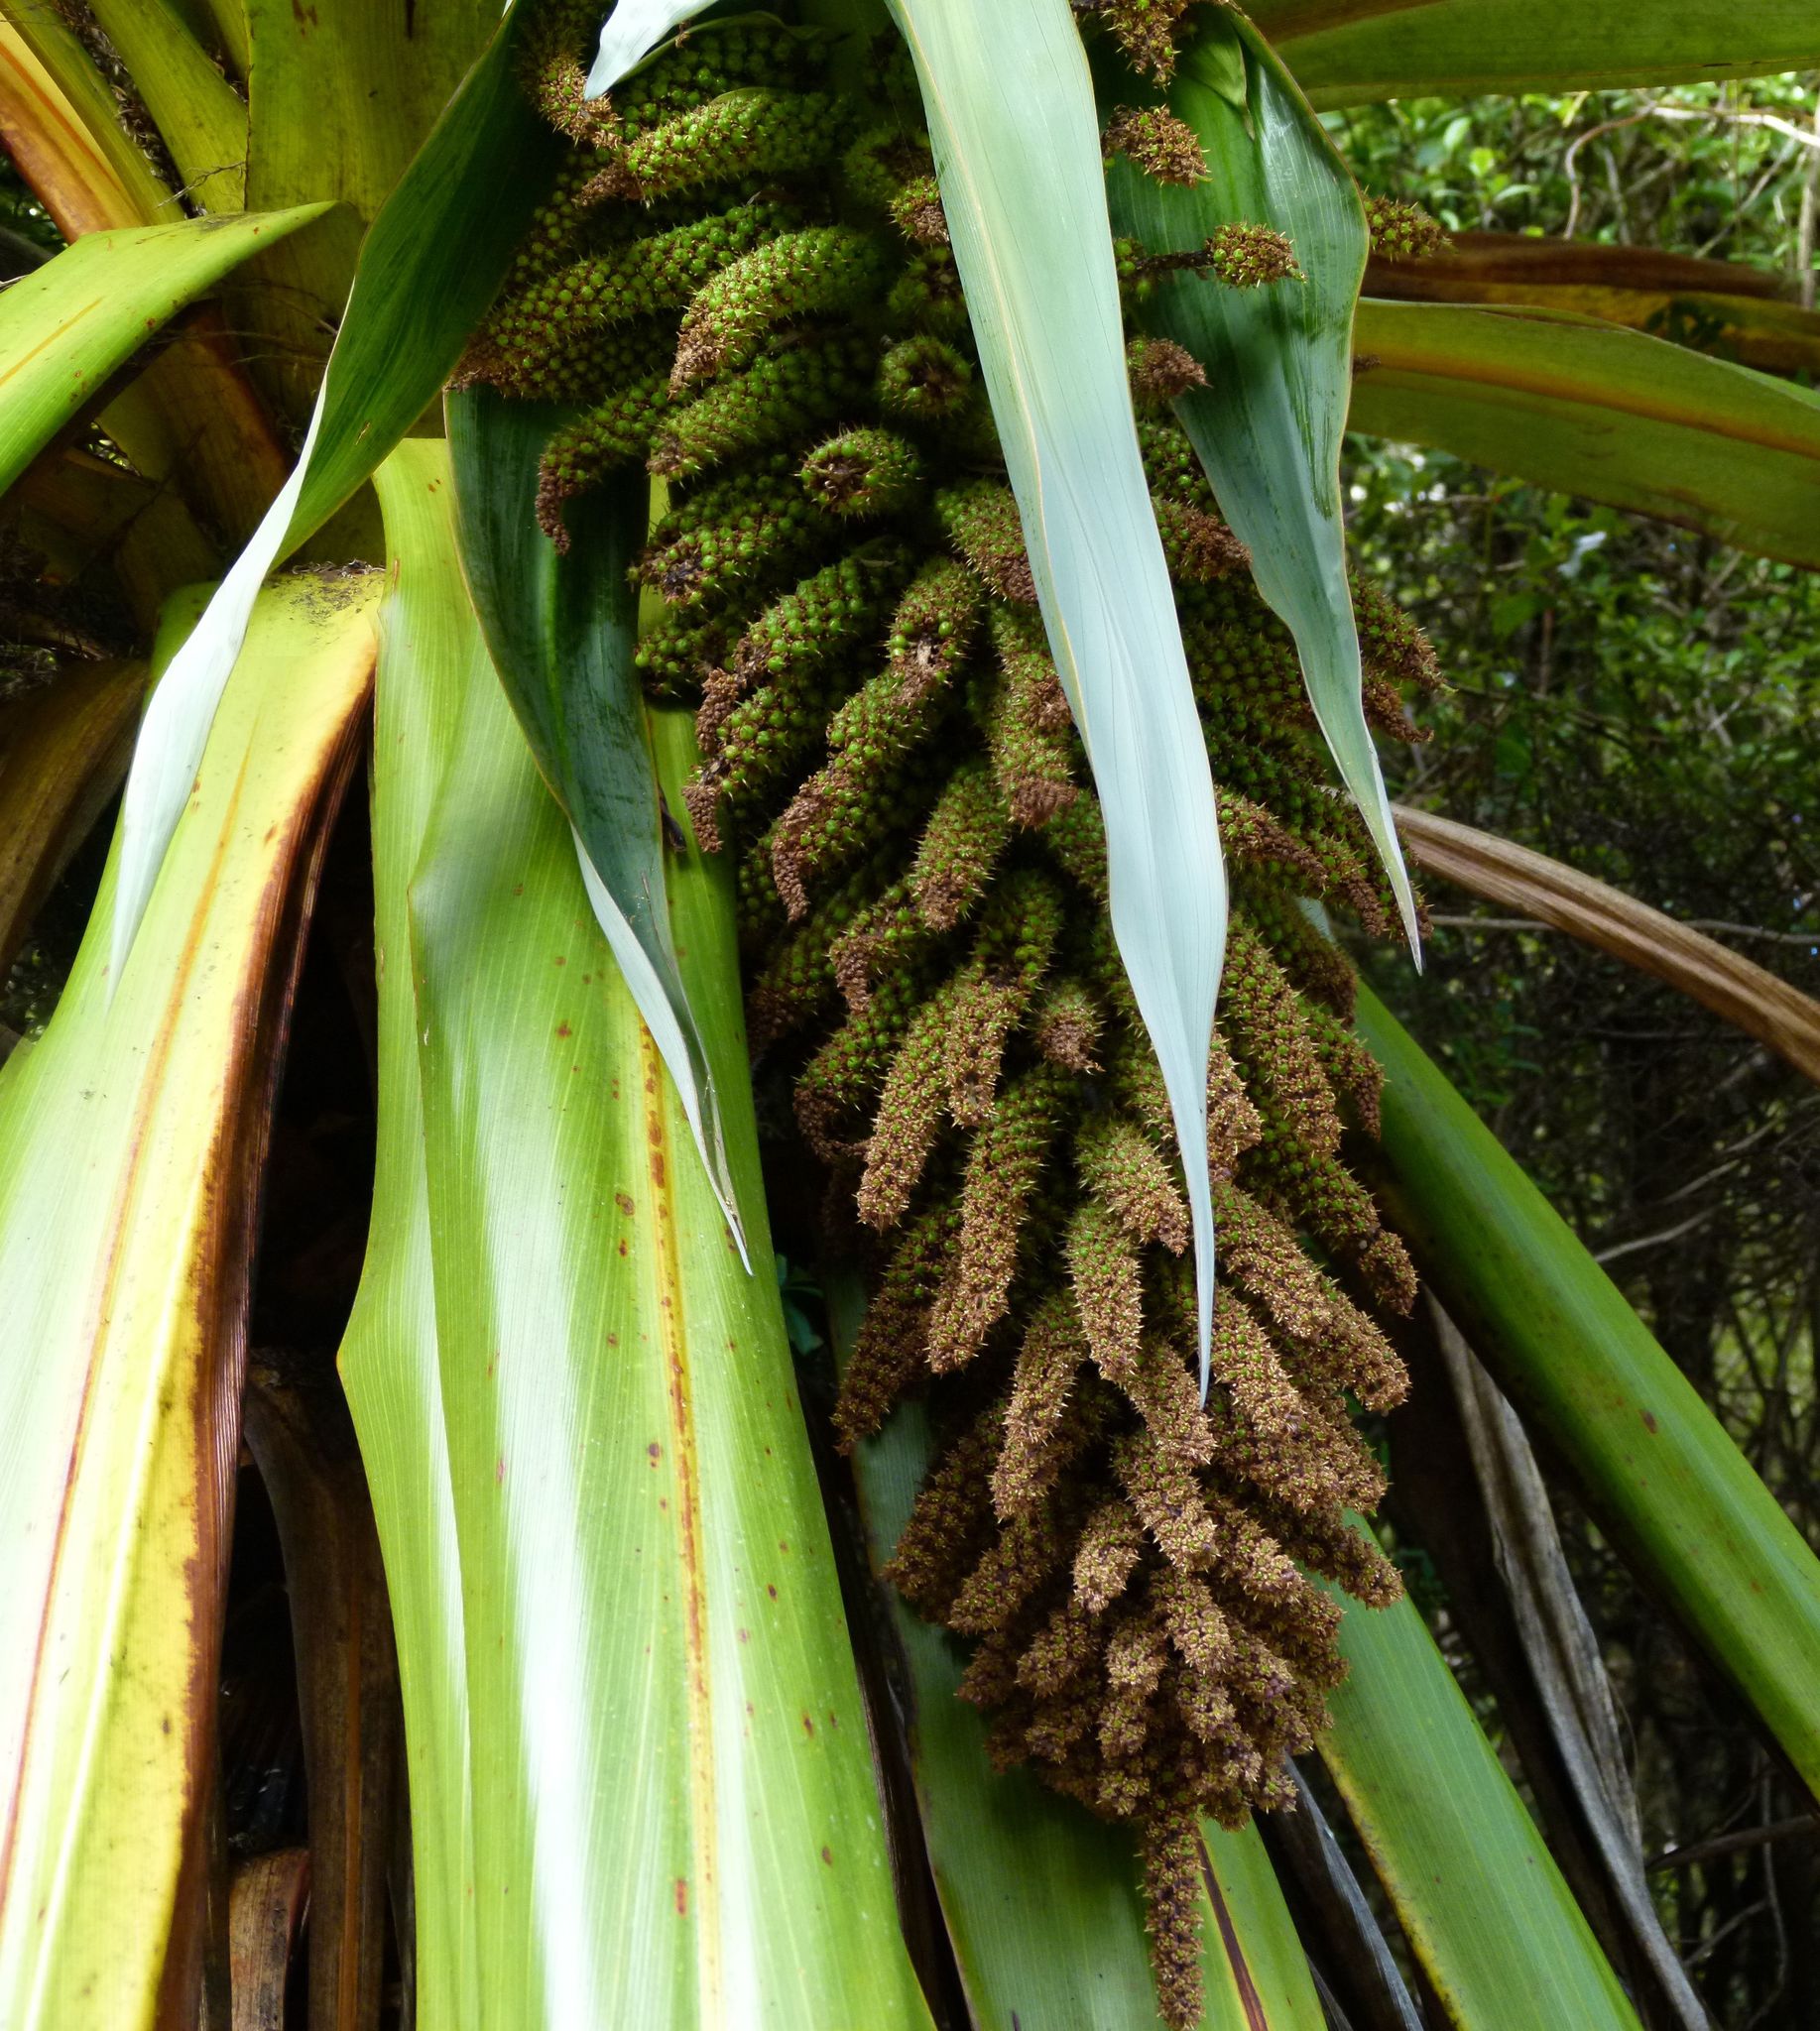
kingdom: Plantae
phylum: Tracheophyta
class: Liliopsida
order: Asparagales
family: Asparagaceae
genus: Cordyline
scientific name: Cordyline indivisa
